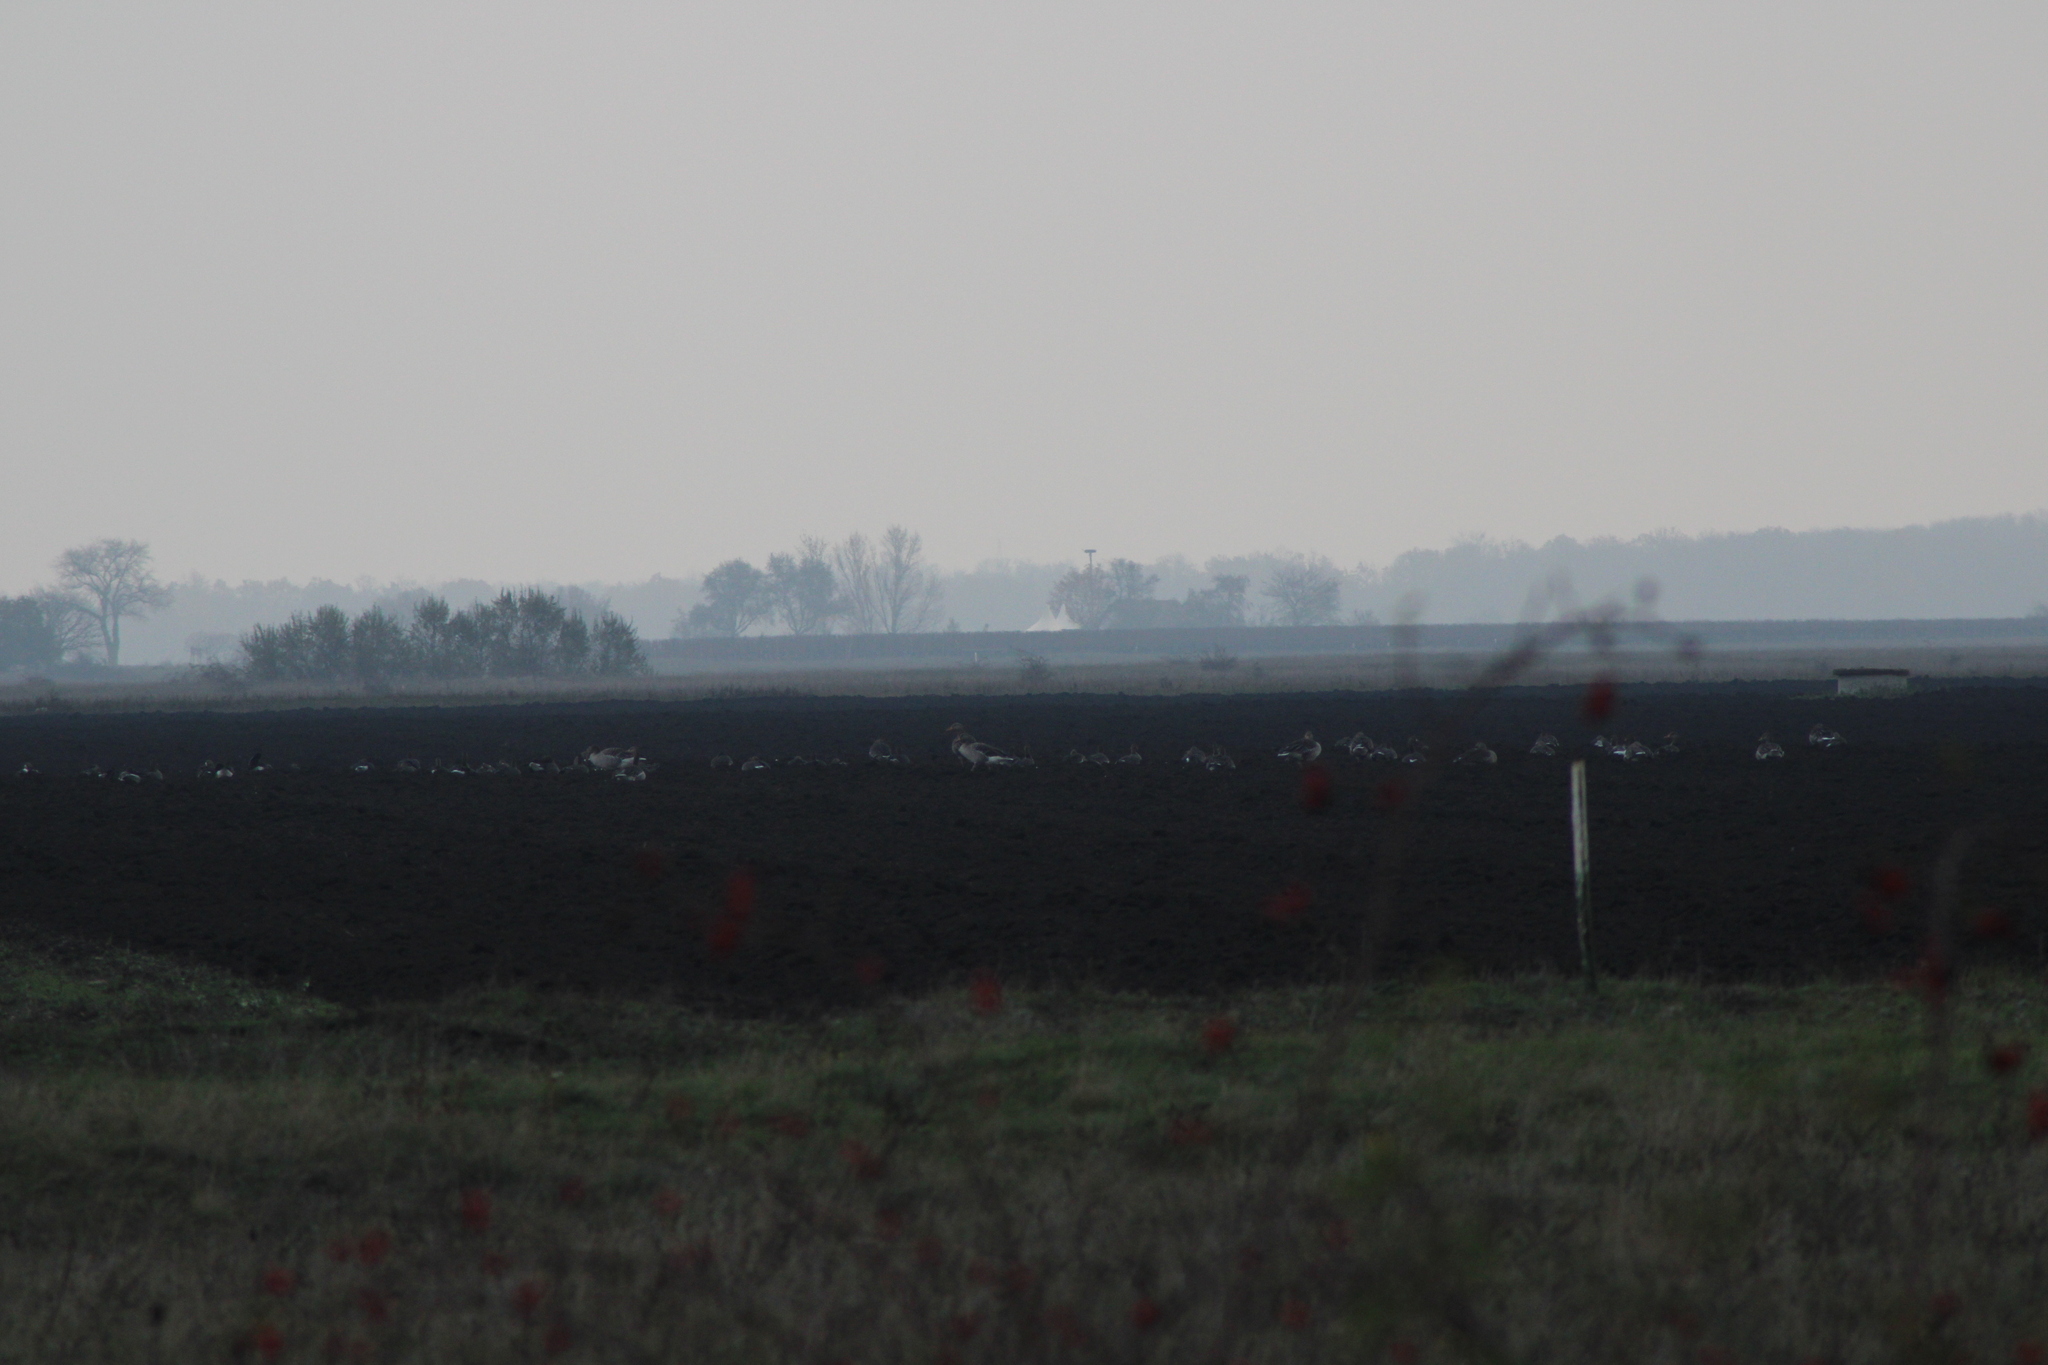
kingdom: Animalia
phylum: Chordata
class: Aves
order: Anseriformes
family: Anatidae
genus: Anser
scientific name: Anser anser
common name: Greylag goose
